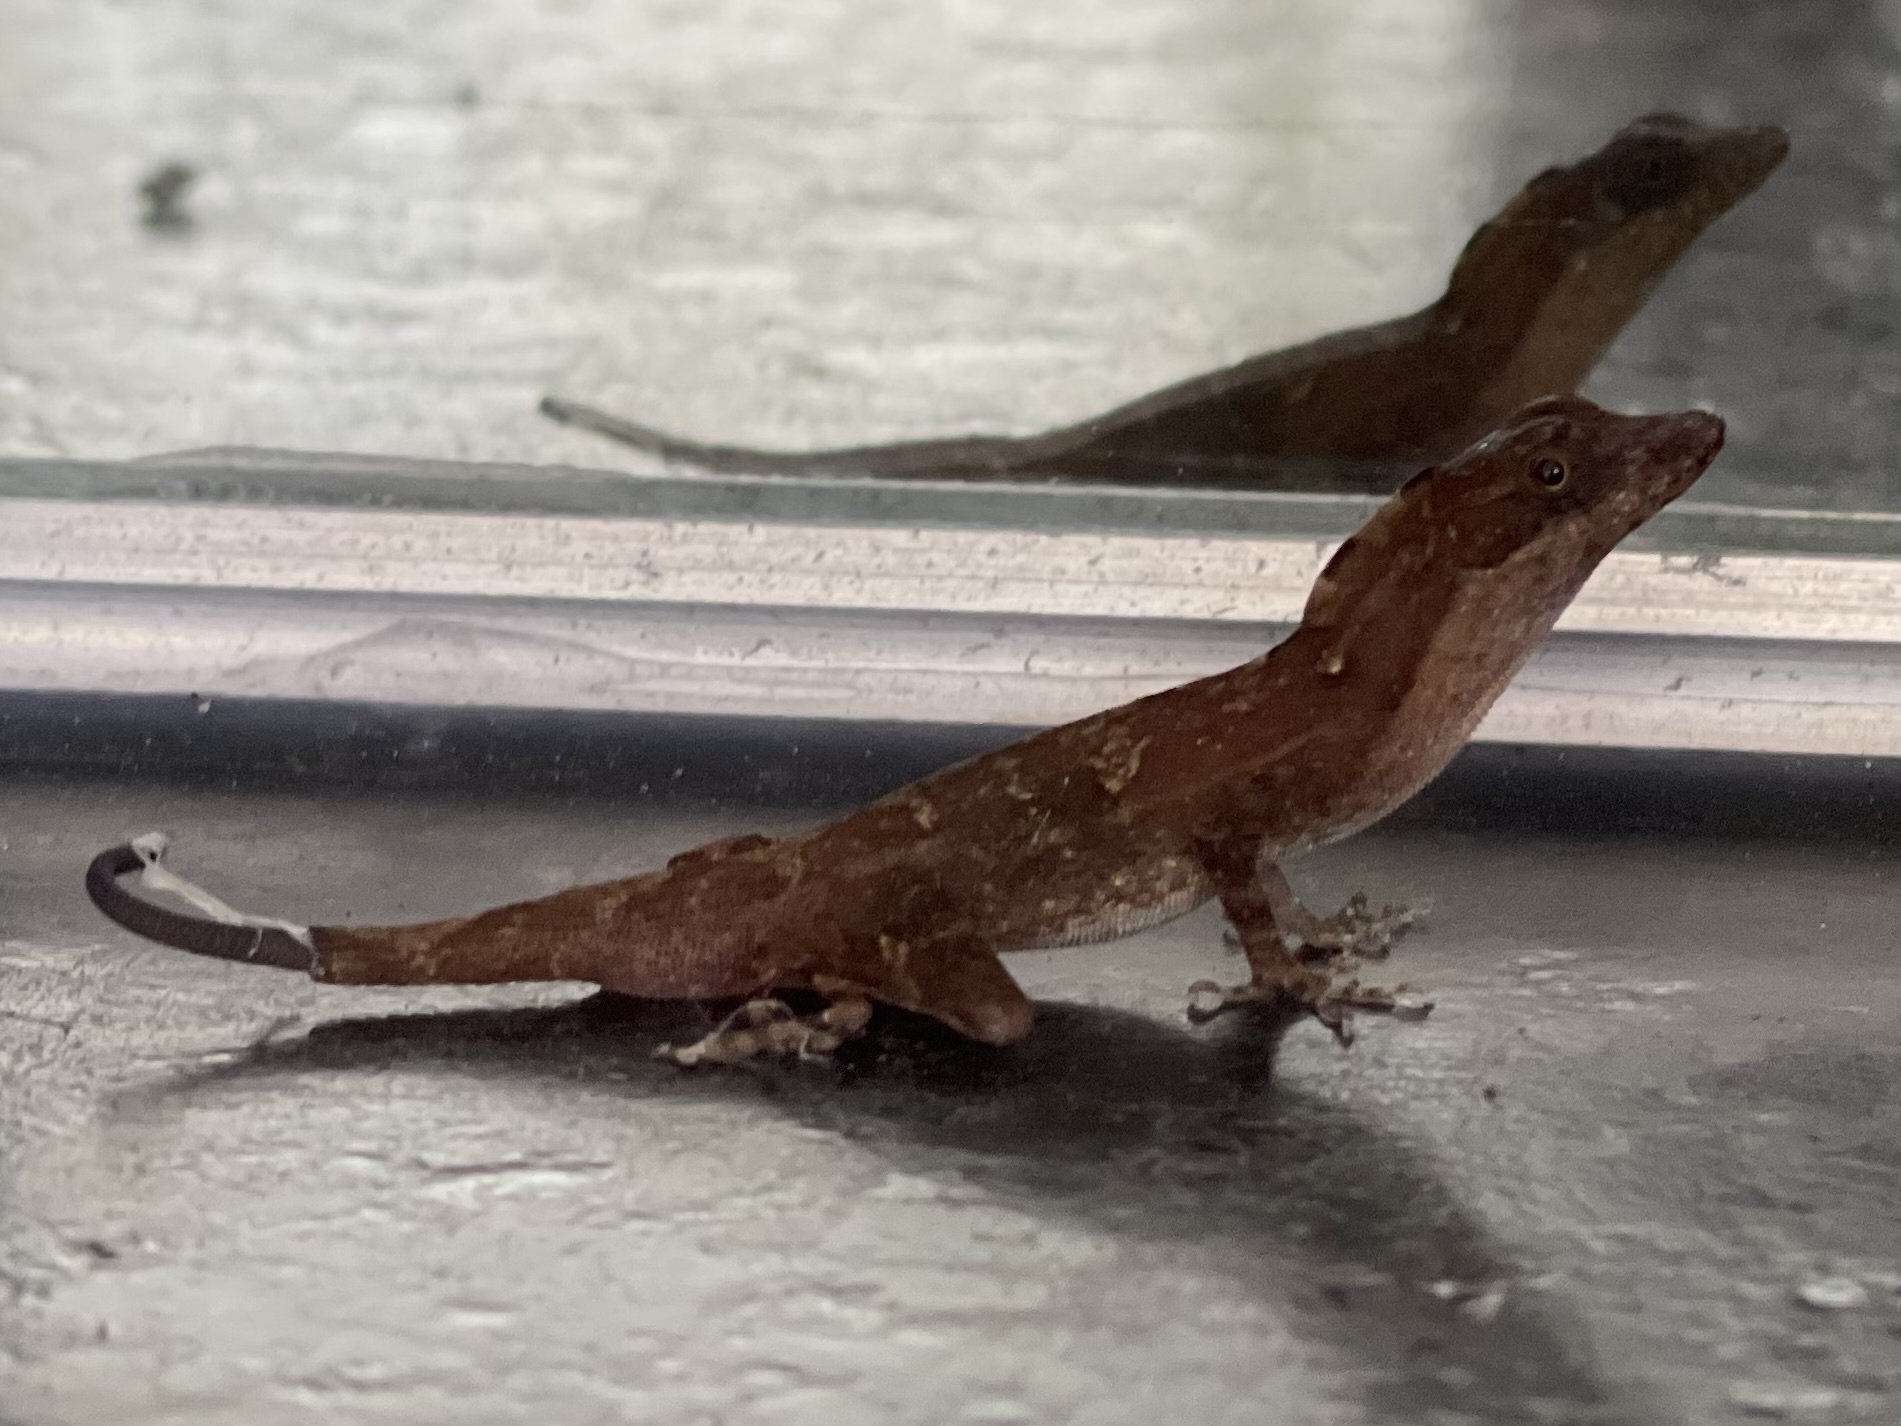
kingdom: Animalia
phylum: Chordata
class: Squamata
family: Dactyloidae
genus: Anolis
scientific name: Anolis rodriguezii
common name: Middle american smooth anole
